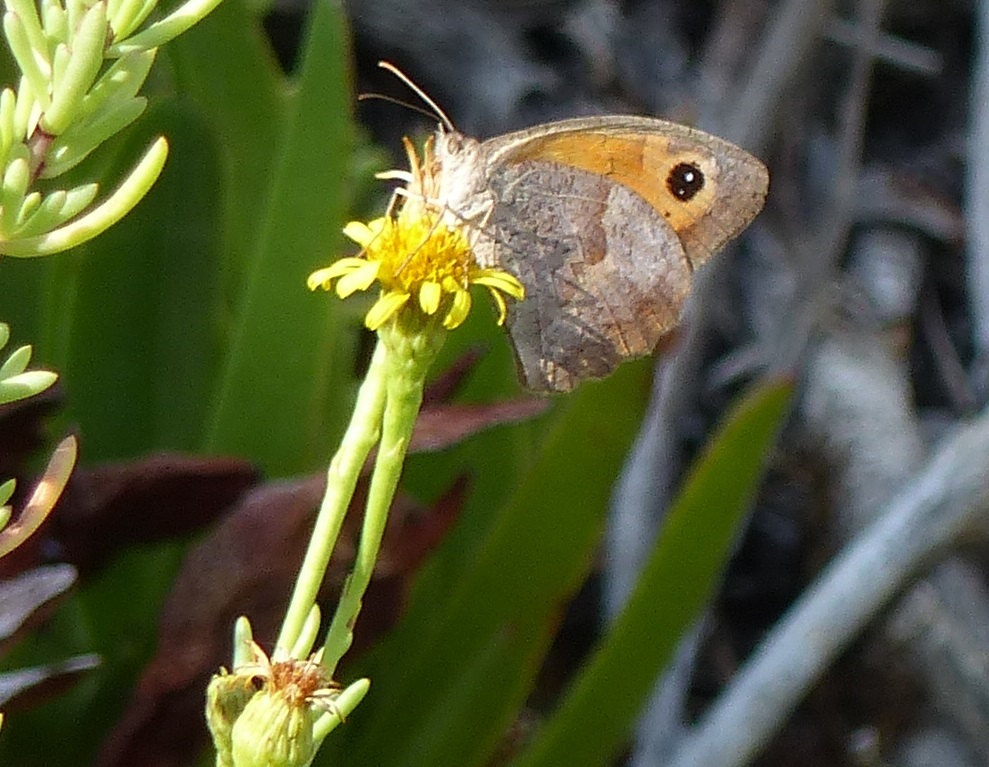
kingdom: Animalia
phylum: Arthropoda
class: Insecta
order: Lepidoptera
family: Nymphalidae
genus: Maniola
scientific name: Maniola jurtina
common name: Meadow brown
